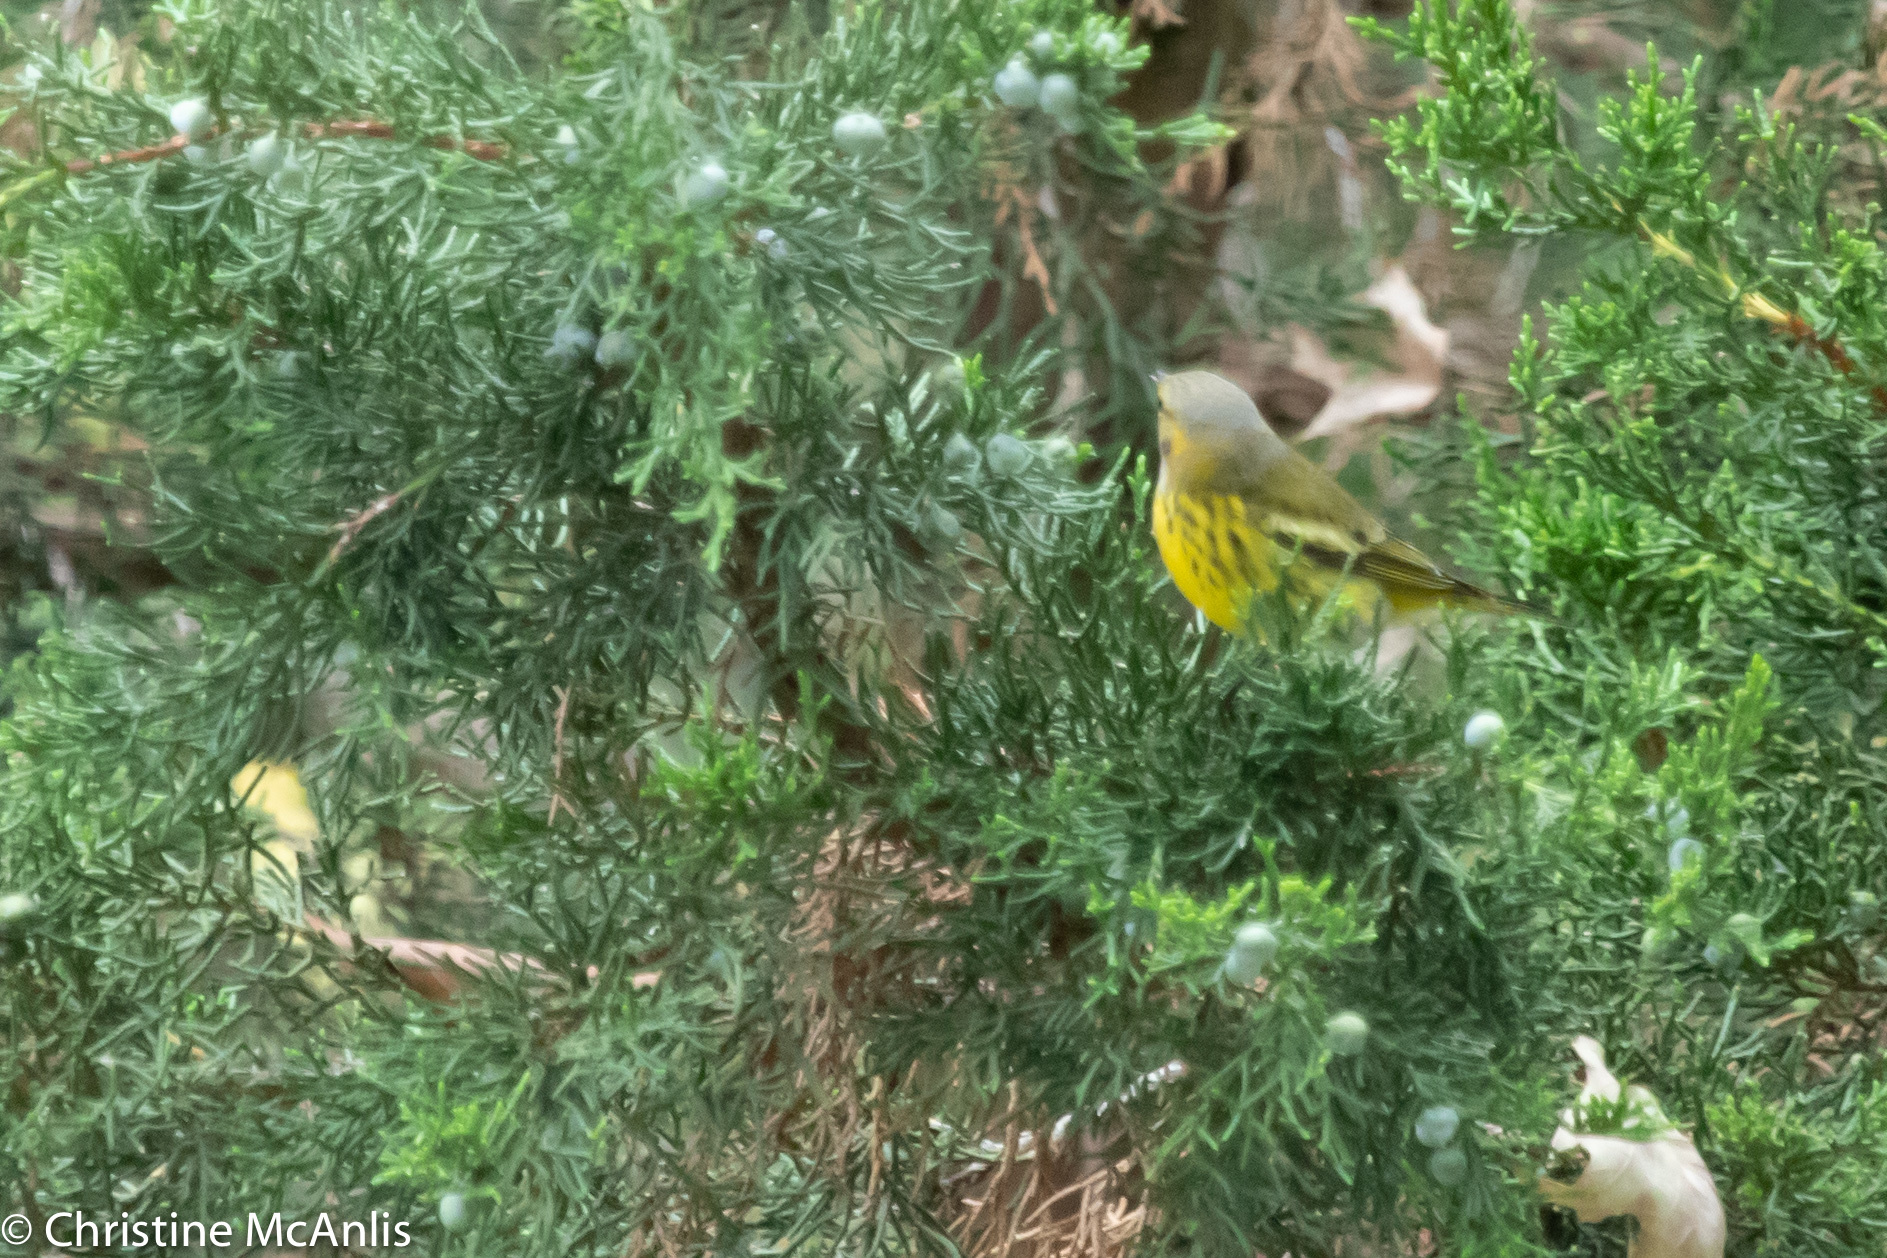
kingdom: Animalia
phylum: Chordata
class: Aves
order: Passeriformes
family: Parulidae
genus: Setophaga
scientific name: Setophaga tigrina
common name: Cape may warbler
